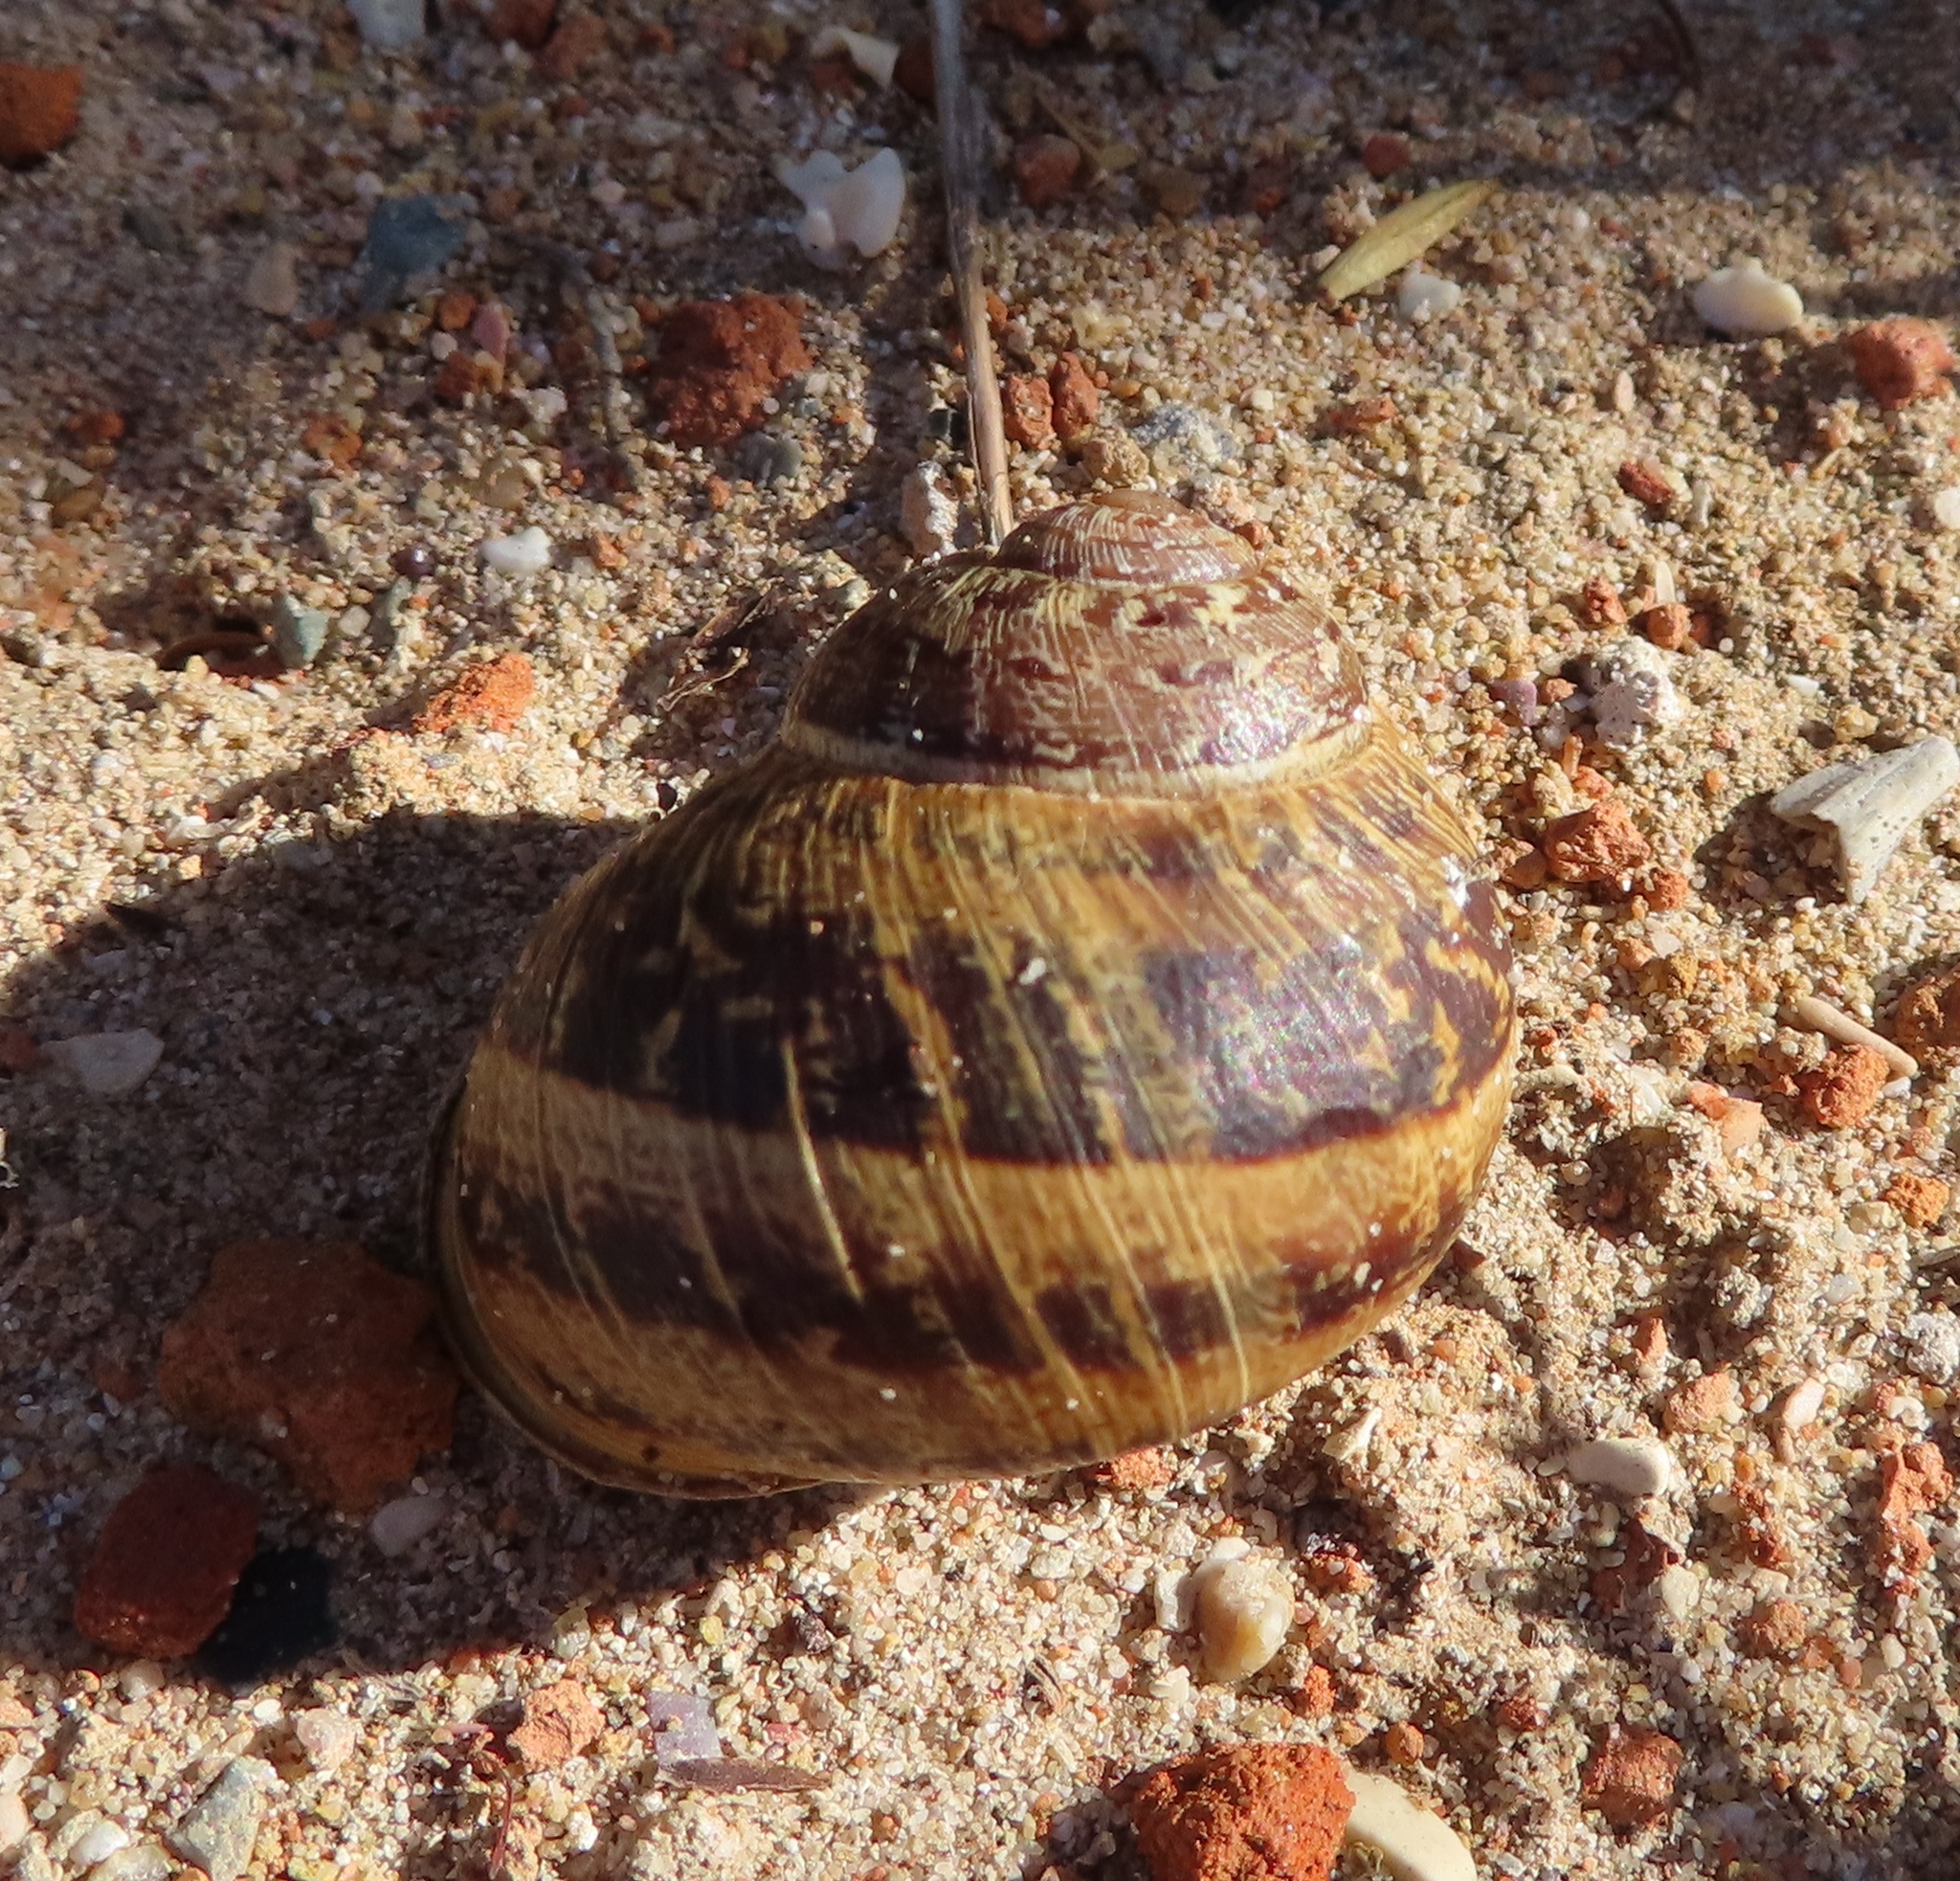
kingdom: Animalia
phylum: Mollusca
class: Gastropoda
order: Stylommatophora
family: Helicidae
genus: Cornu
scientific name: Cornu aspersum
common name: Brown garden snail
